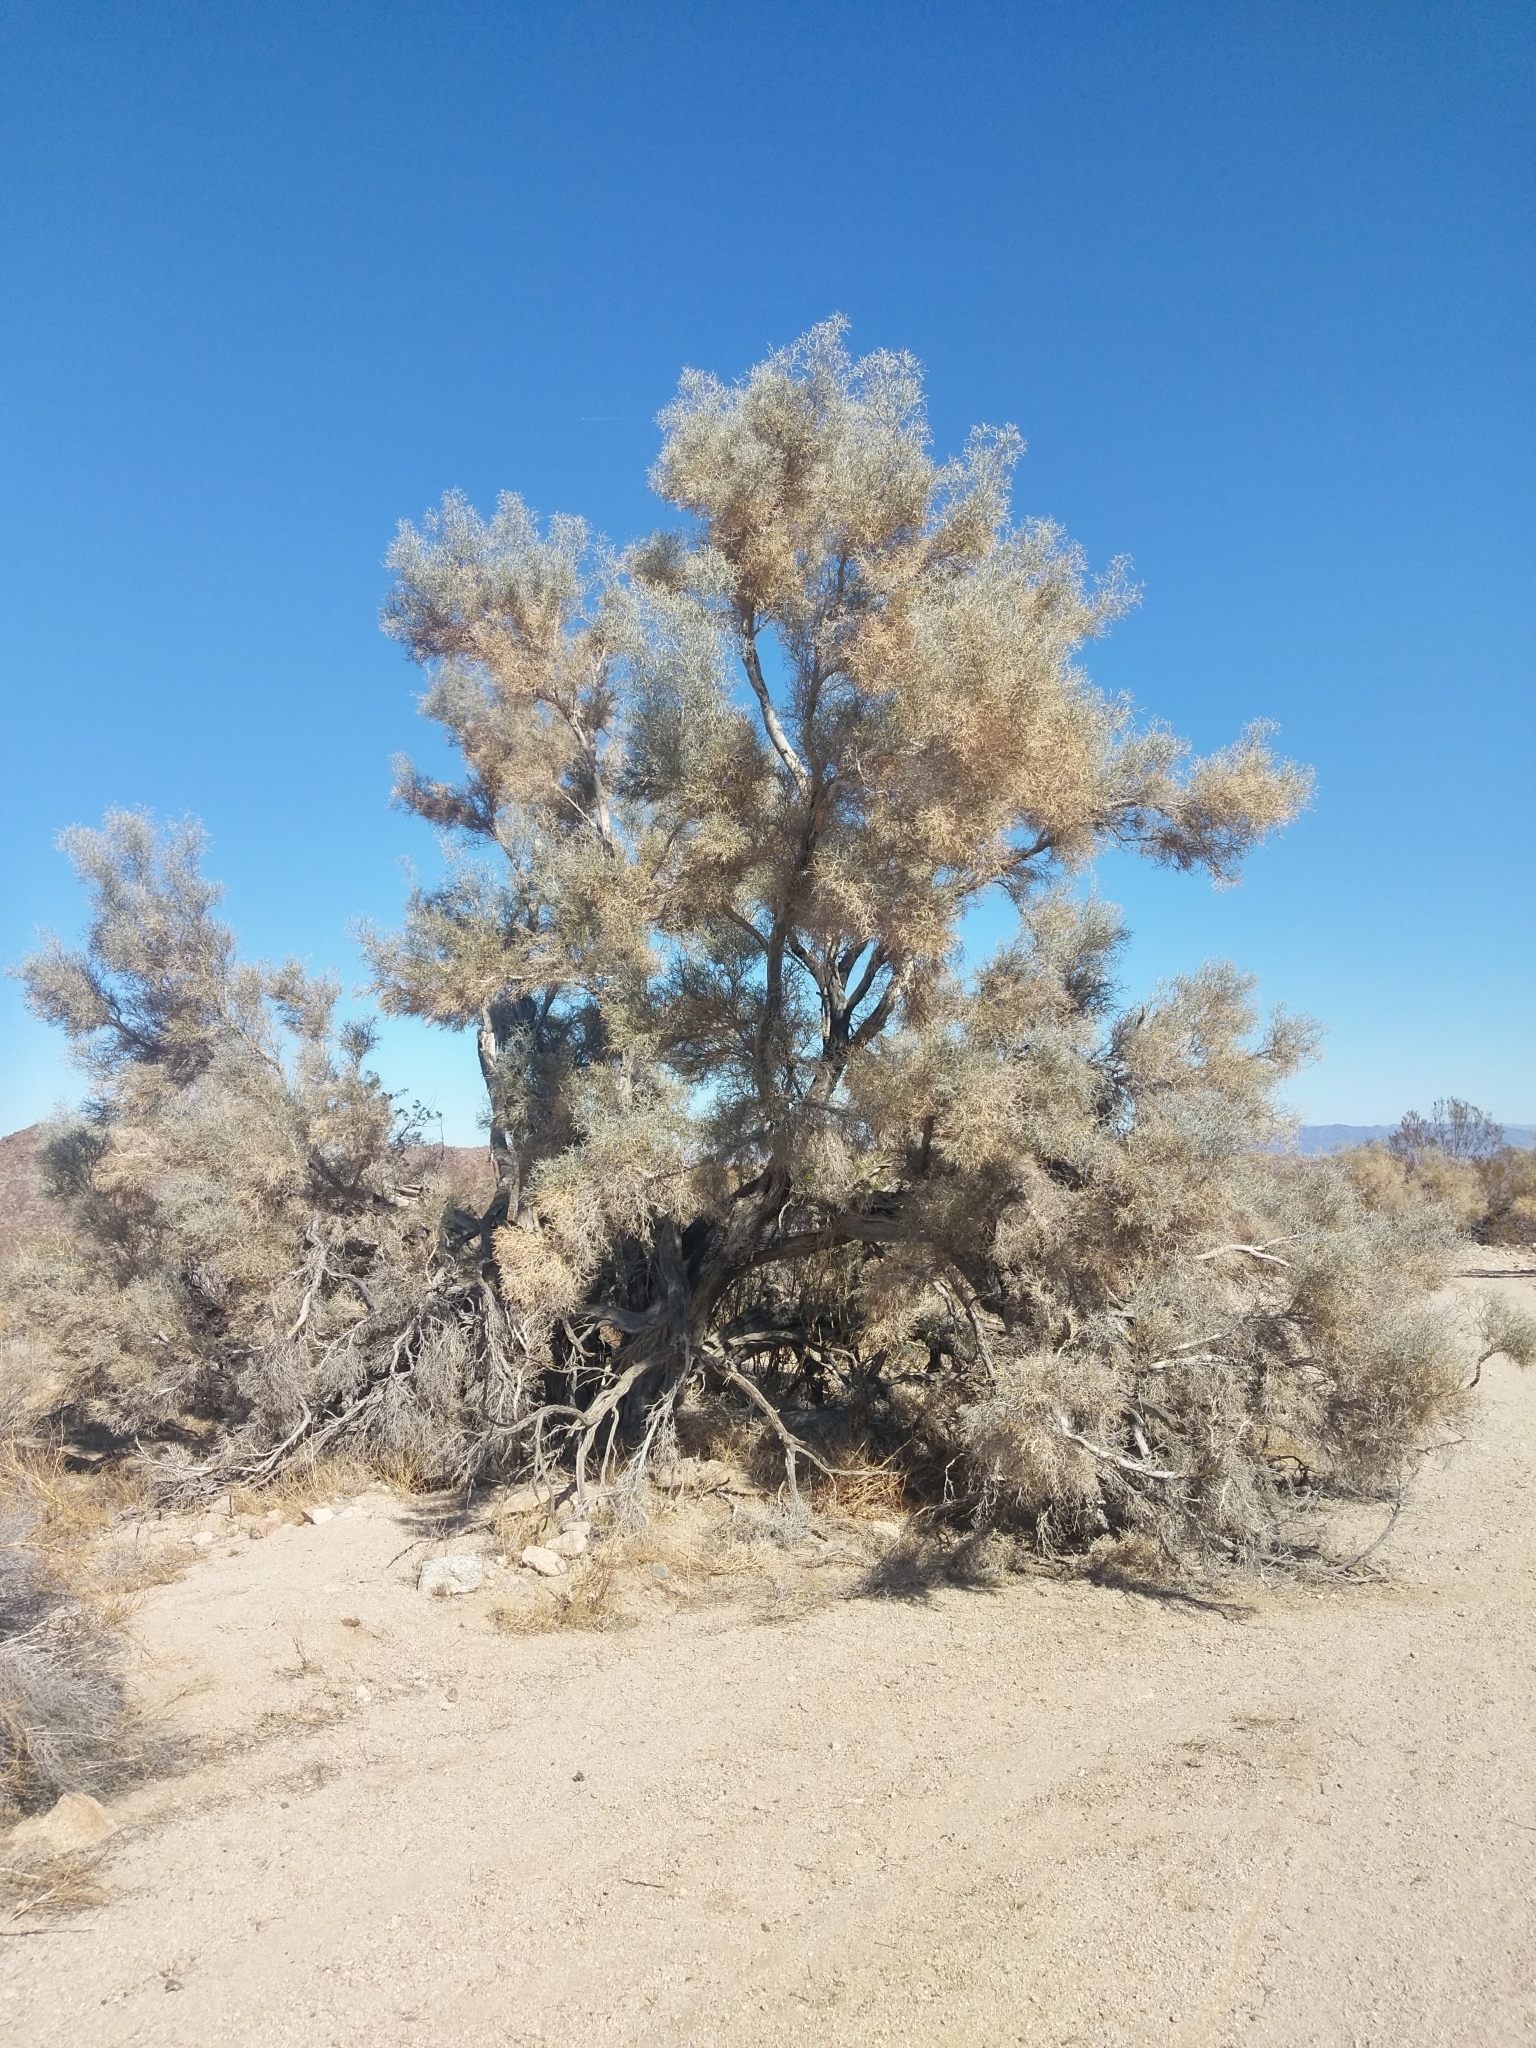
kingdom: Plantae
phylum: Tracheophyta
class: Magnoliopsida
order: Fabales
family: Fabaceae
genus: Psorothamnus
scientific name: Psorothamnus spinosus
